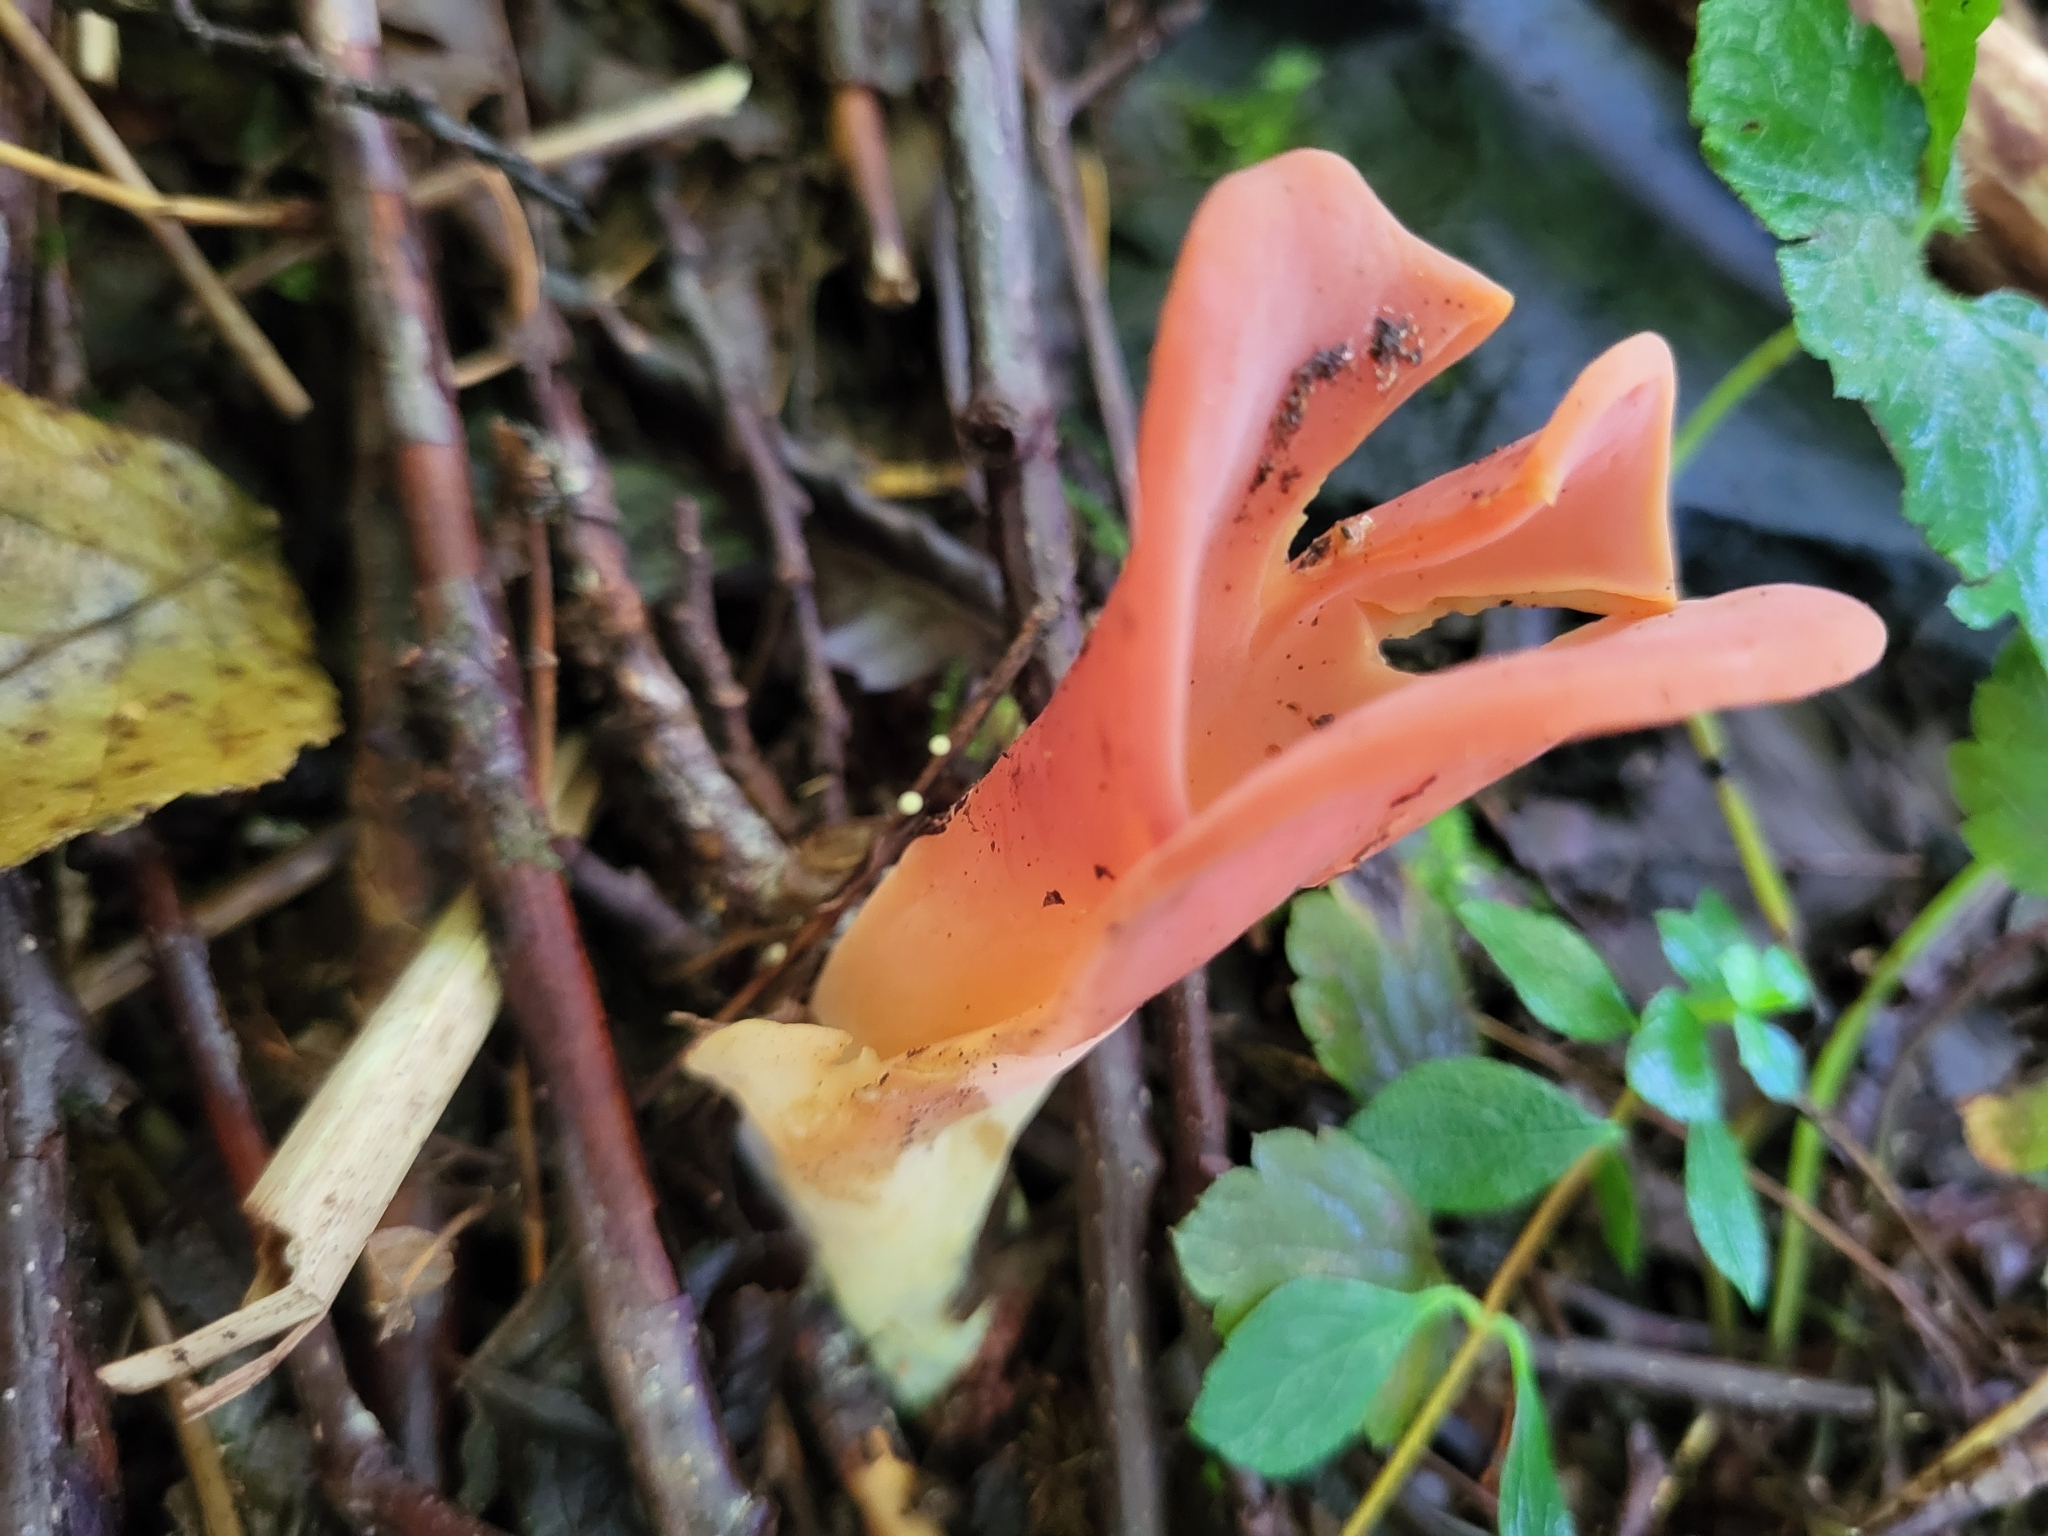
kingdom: Fungi
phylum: Basidiomycota
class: Agaricomycetes
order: Auriculariales
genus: Guepinia
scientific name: Guepinia helvelloides
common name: Salmon salad
